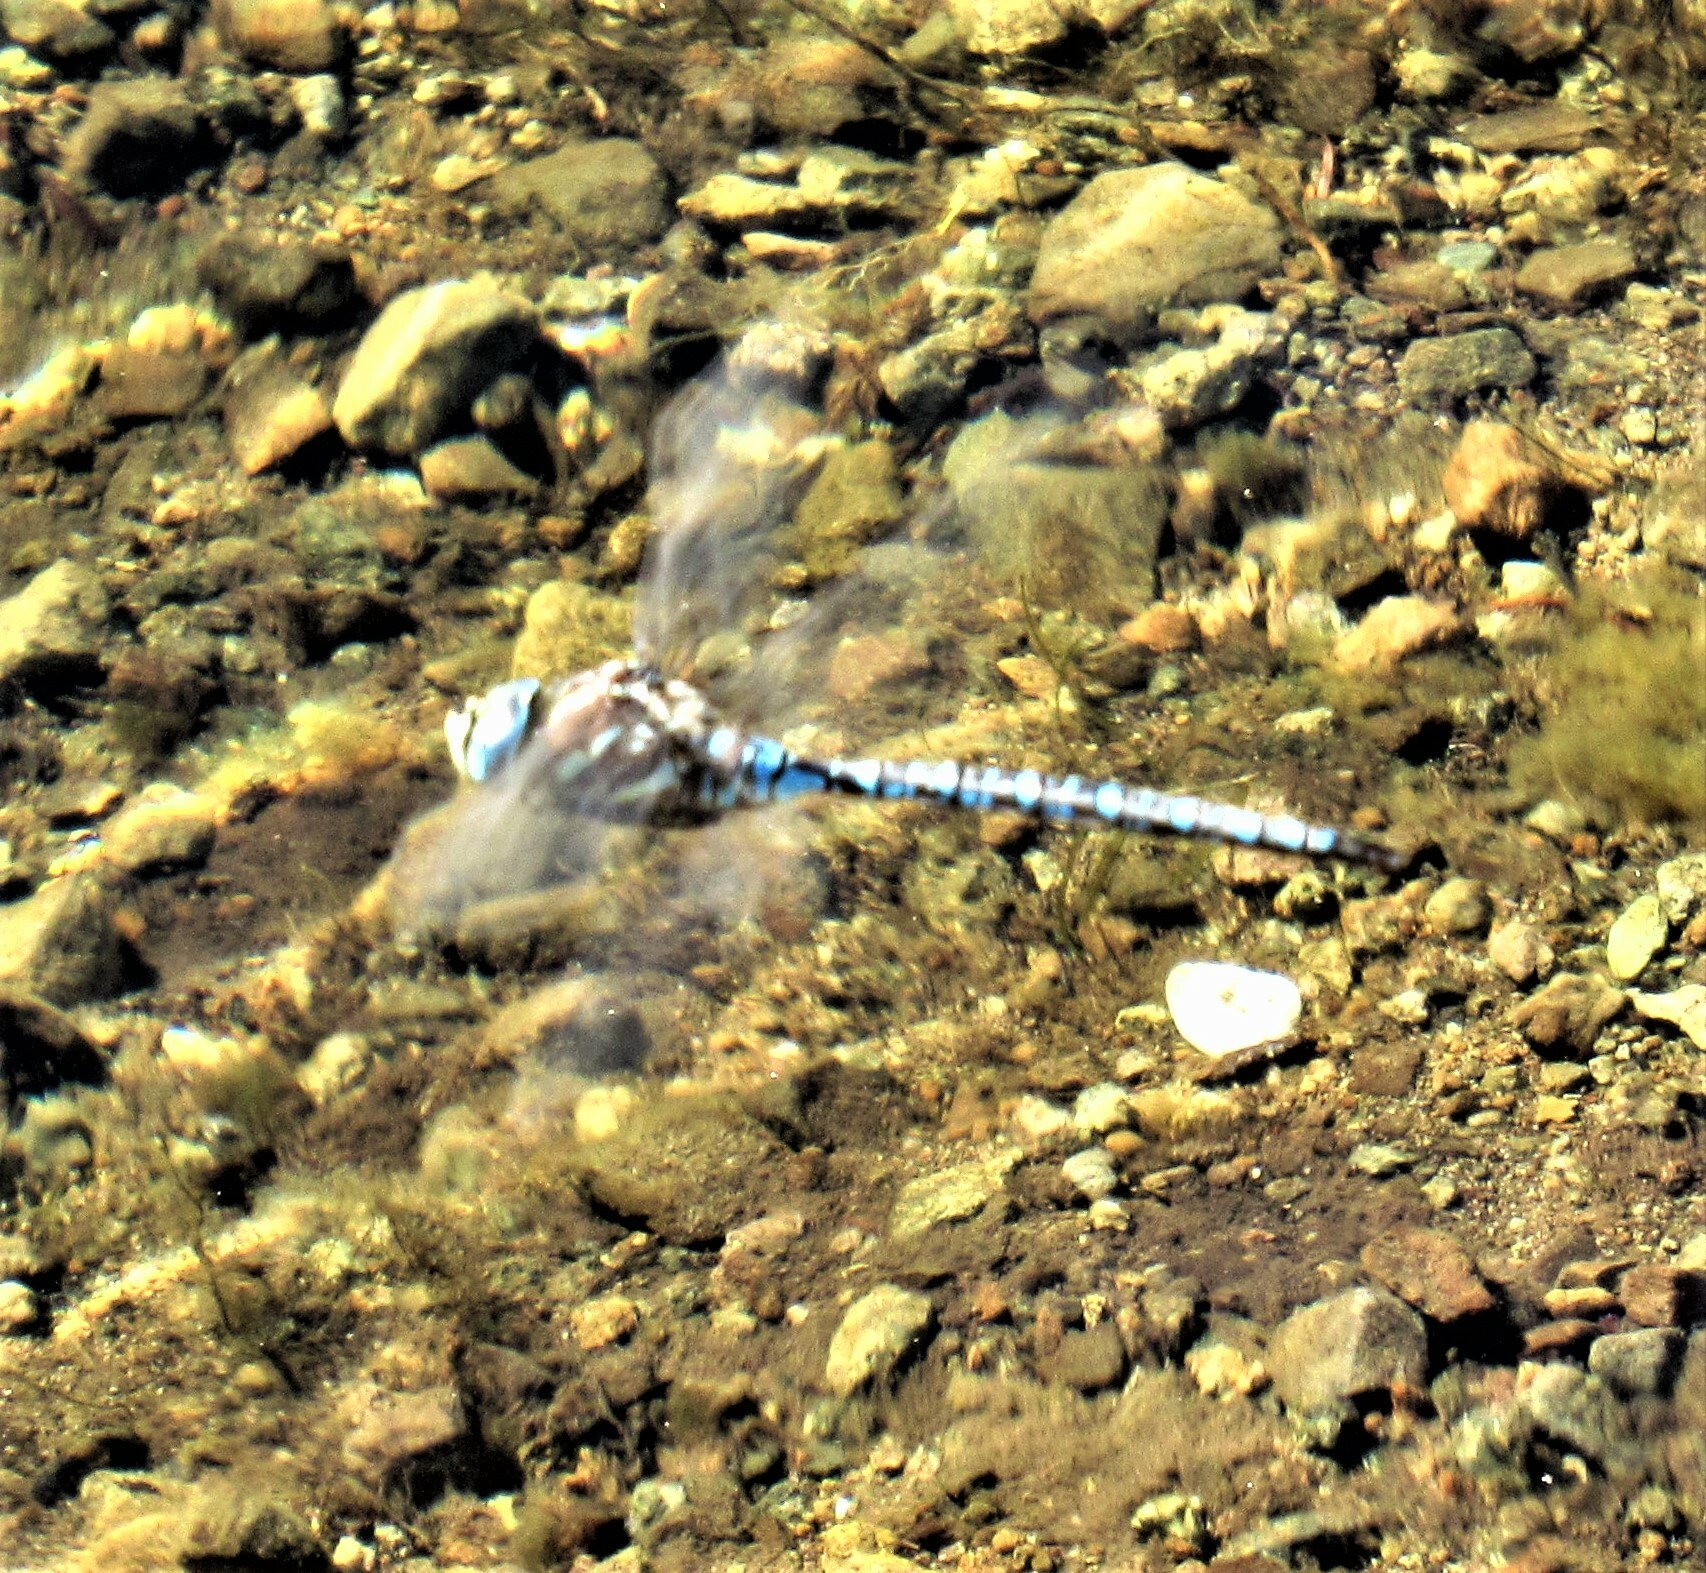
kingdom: Animalia
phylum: Arthropoda
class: Insecta
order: Odonata
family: Aeshnidae
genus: Aeshna
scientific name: Aeshna palmata
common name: Paddle-tailed darner
